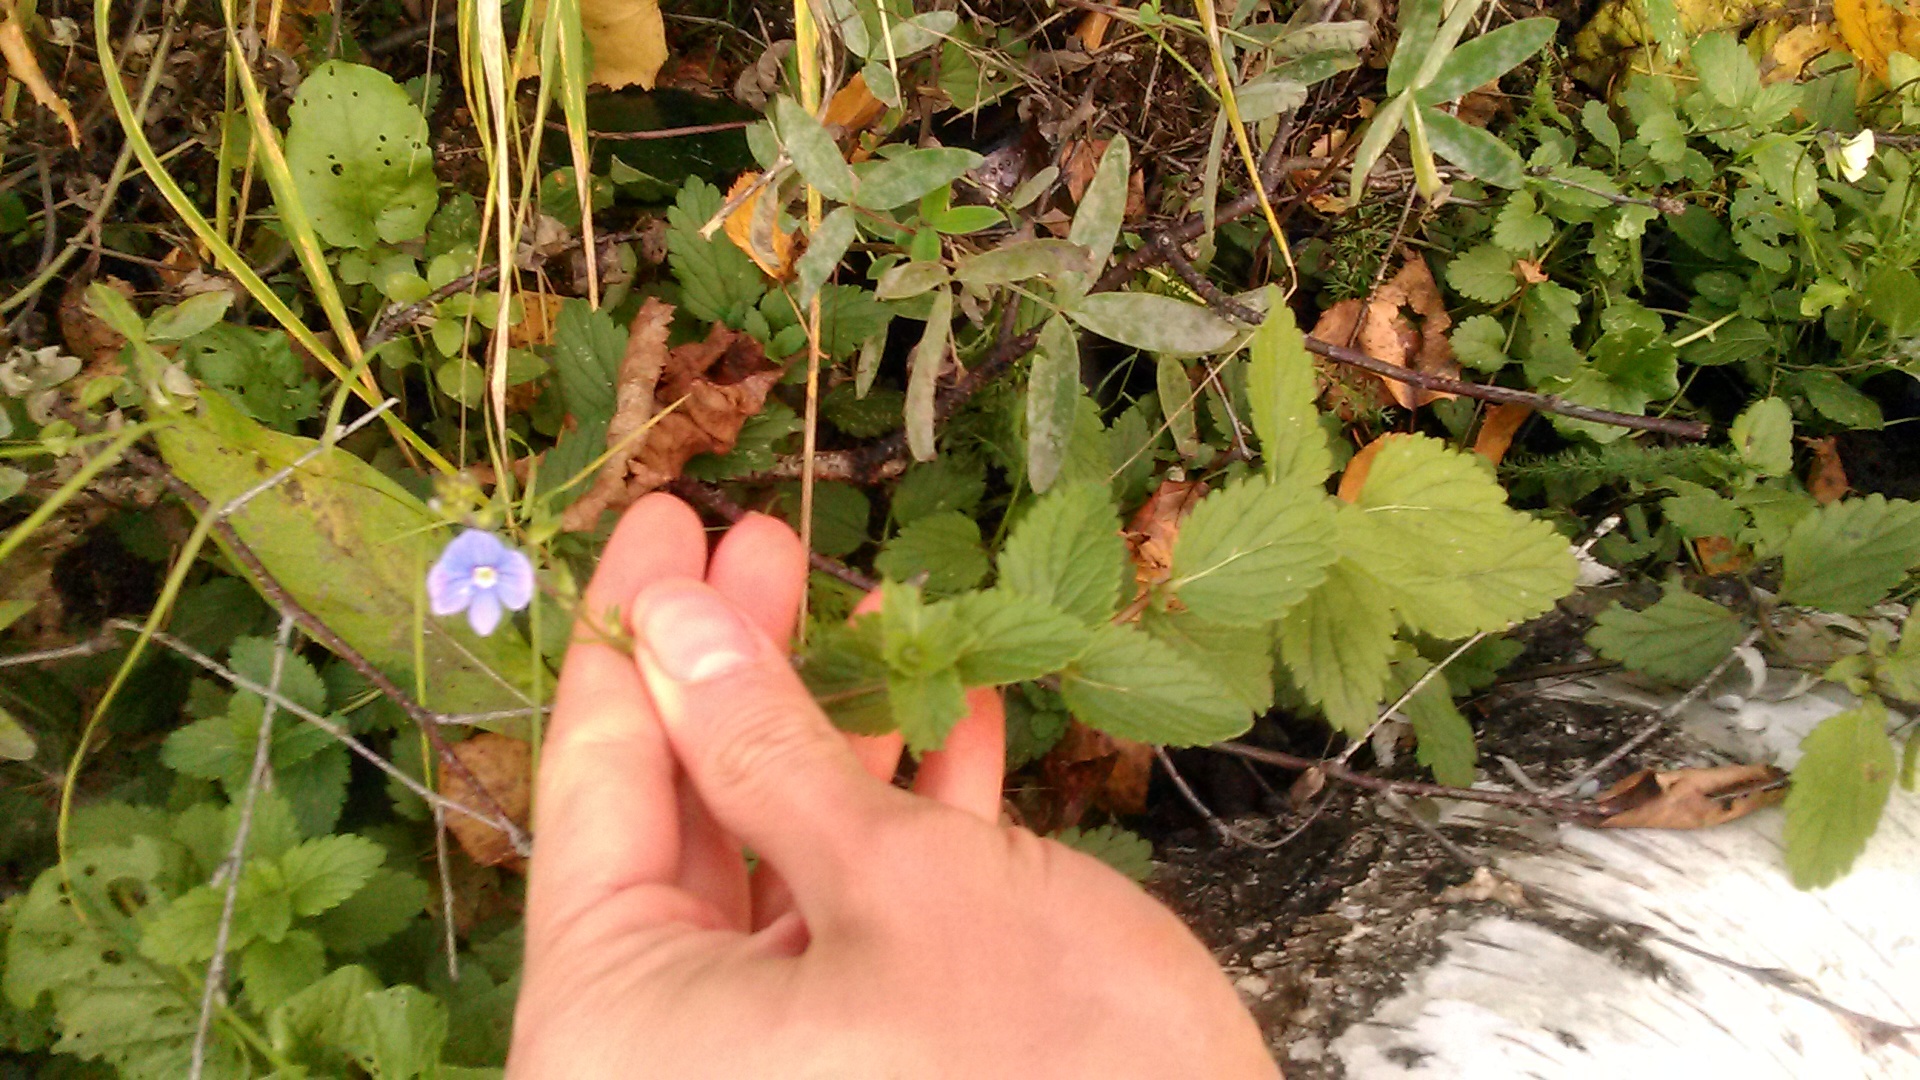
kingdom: Plantae
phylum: Tracheophyta
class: Magnoliopsida
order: Lamiales
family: Plantaginaceae
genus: Veronica
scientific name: Veronica chamaedrys
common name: Germander speedwell
